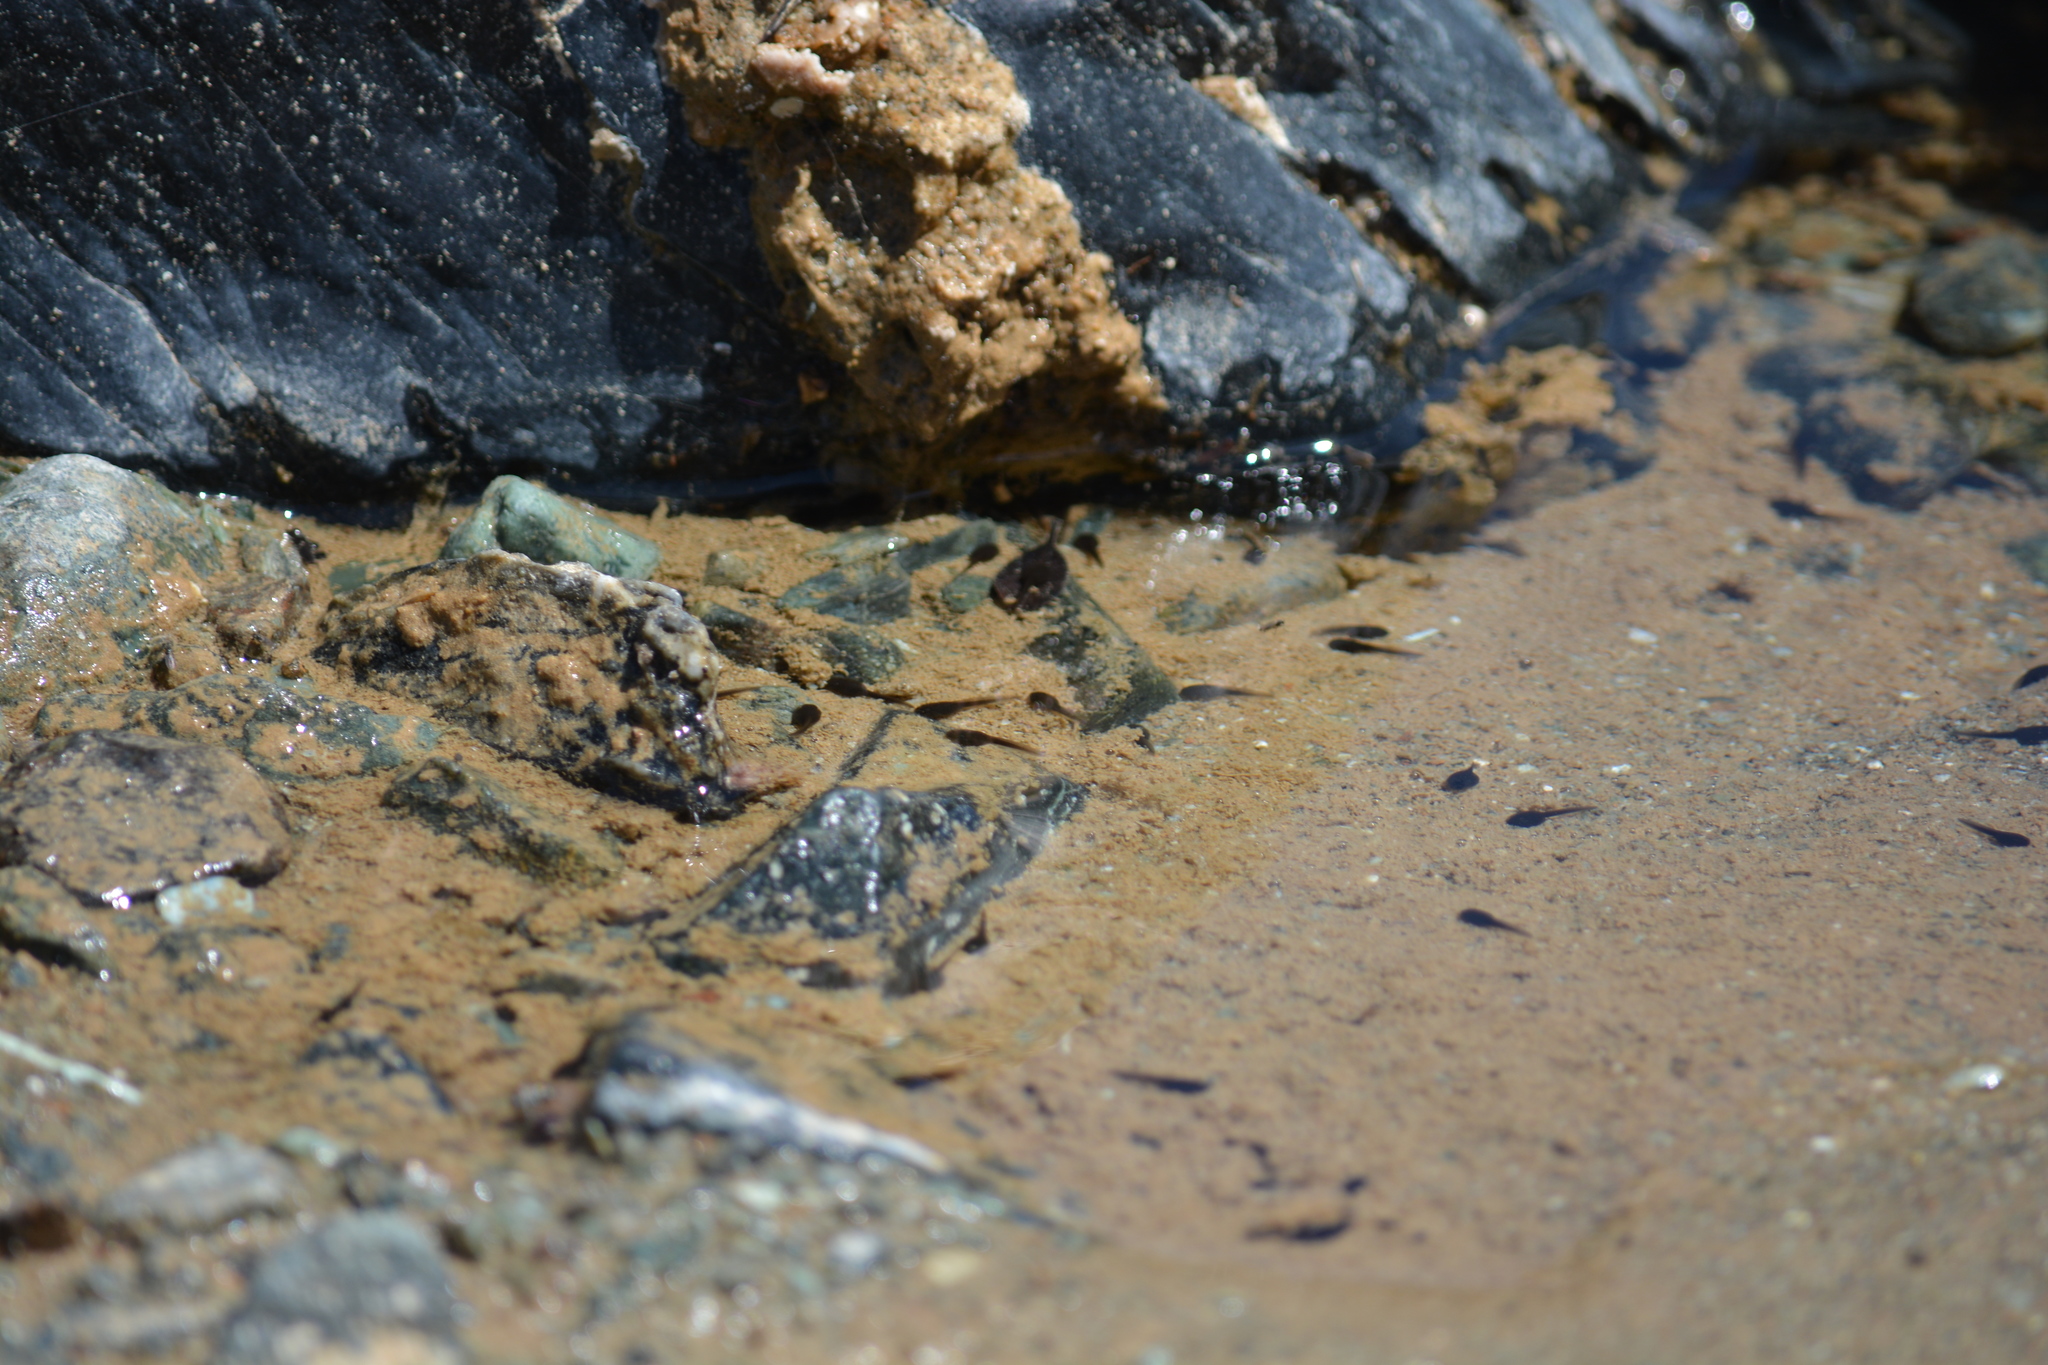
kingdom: Animalia
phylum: Chordata
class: Amphibia
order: Anura
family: Ranidae
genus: Rana
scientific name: Rana boylii
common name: Foothill yellow-legged frog
